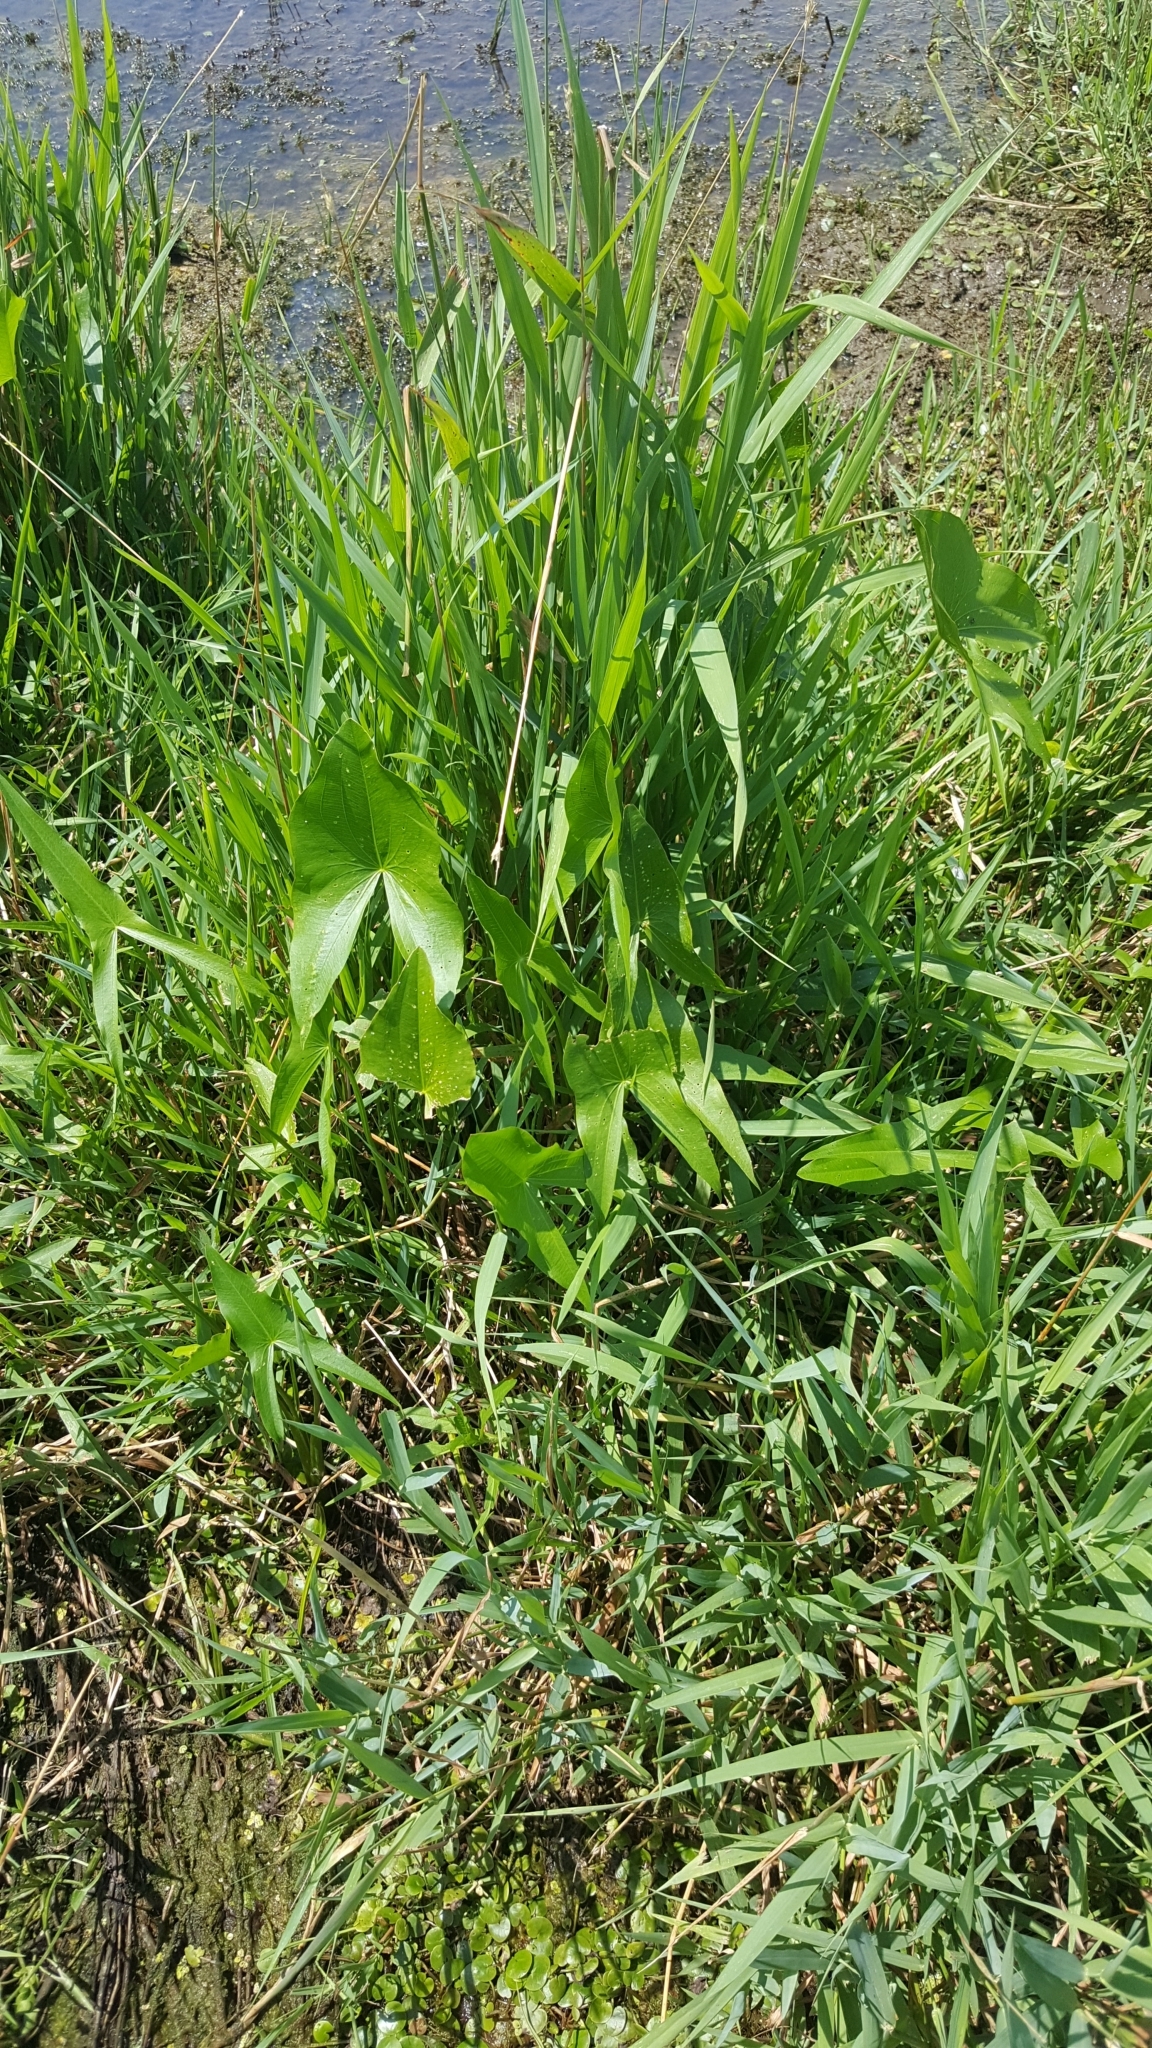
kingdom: Plantae
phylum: Tracheophyta
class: Liliopsida
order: Alismatales
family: Alismataceae
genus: Sagittaria
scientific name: Sagittaria latifolia
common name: Duck-potato
